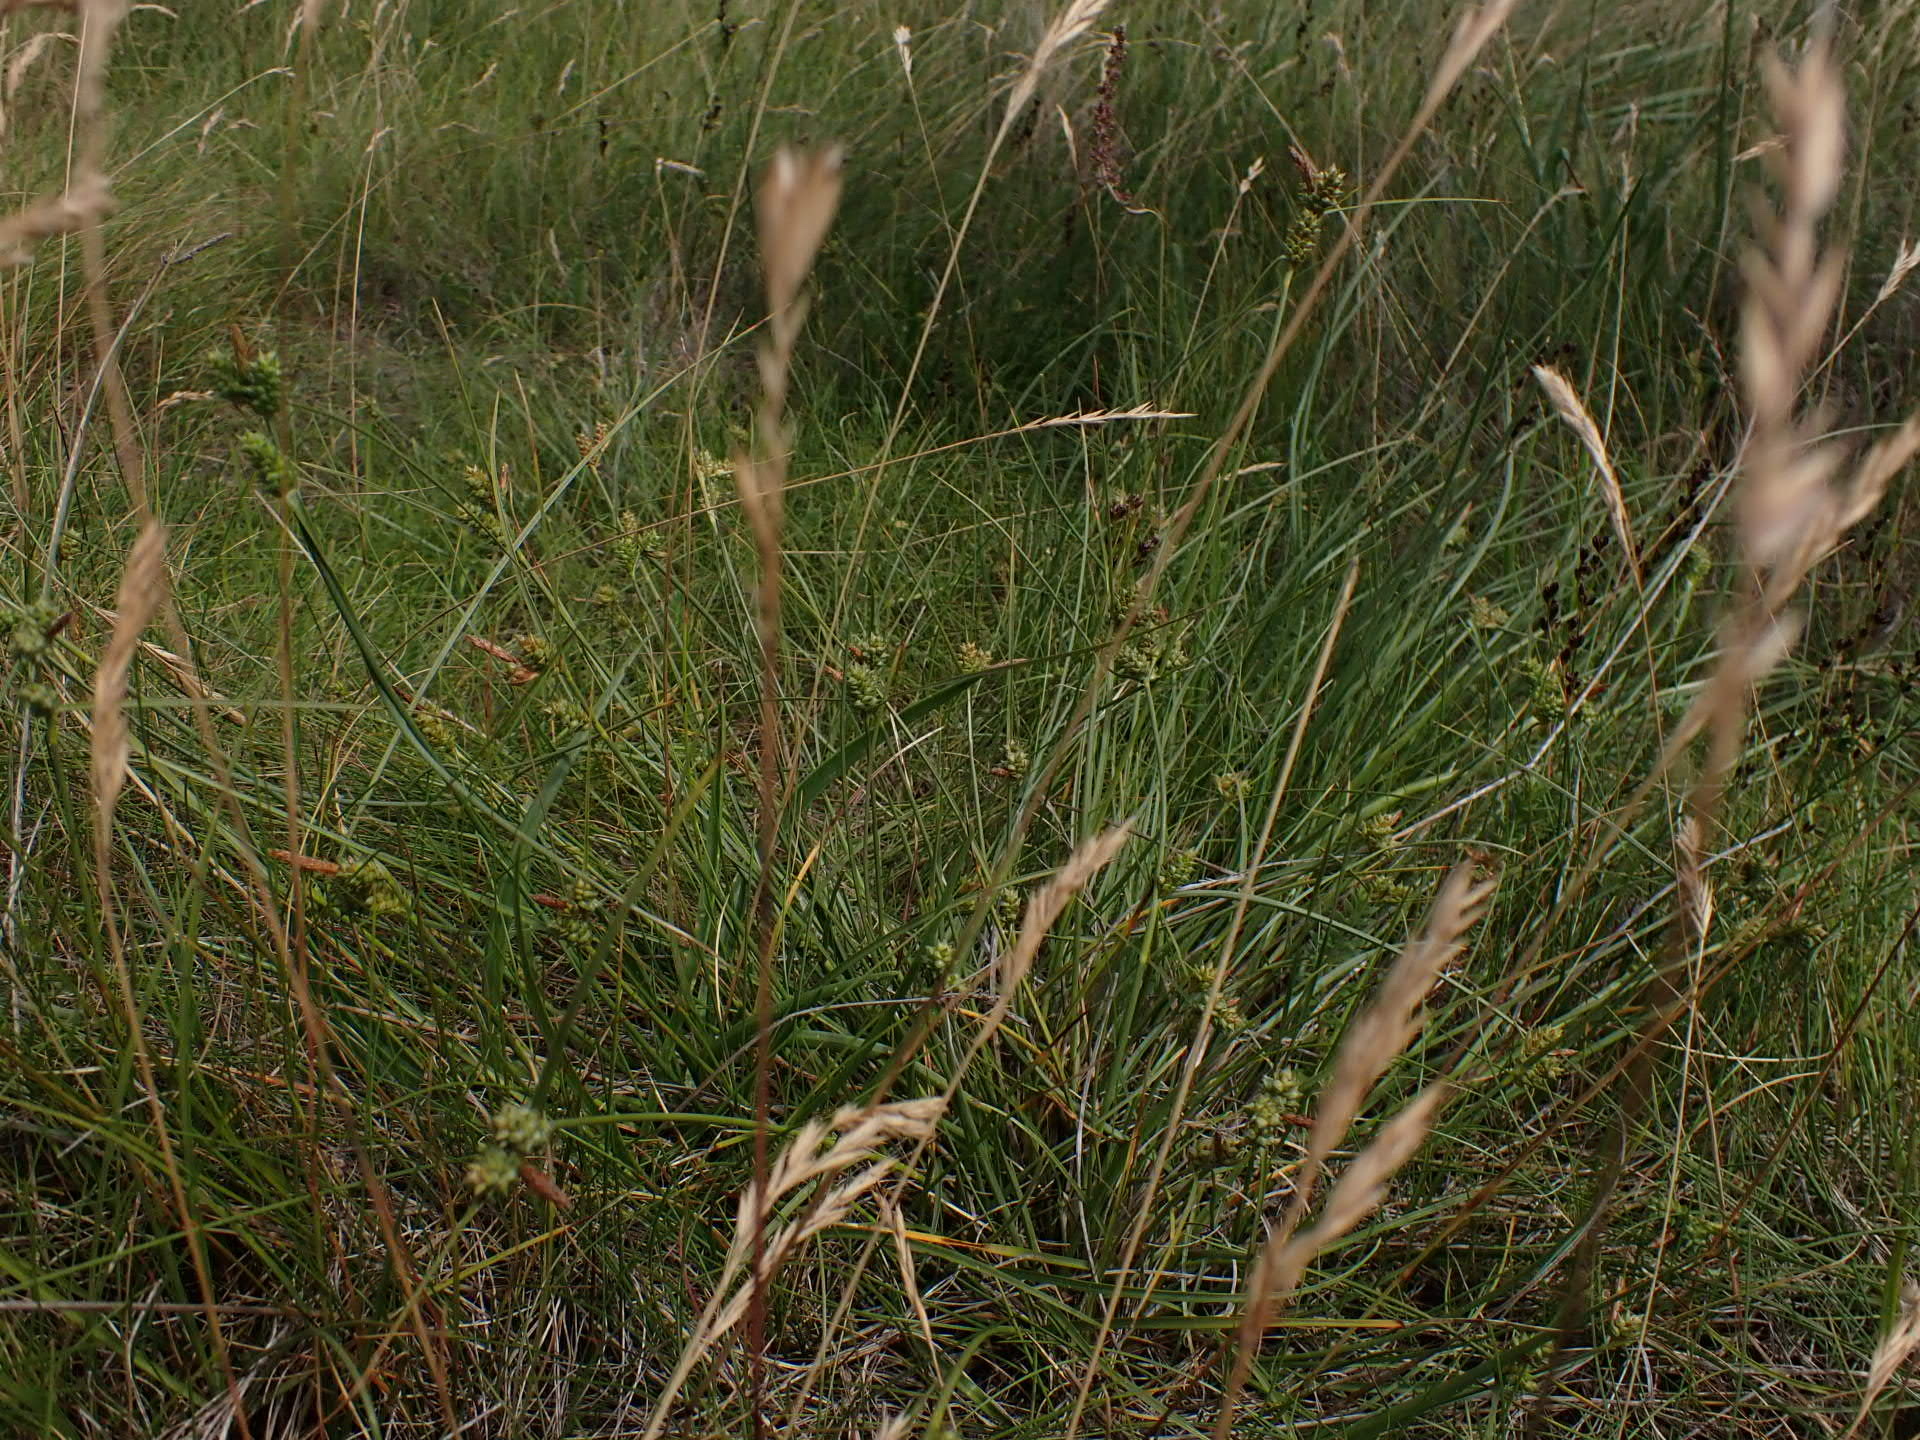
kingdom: Plantae
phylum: Tracheophyta
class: Liliopsida
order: Poales
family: Cyperaceae
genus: Carex
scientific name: Carex extensa
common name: Long-bracted sedge
